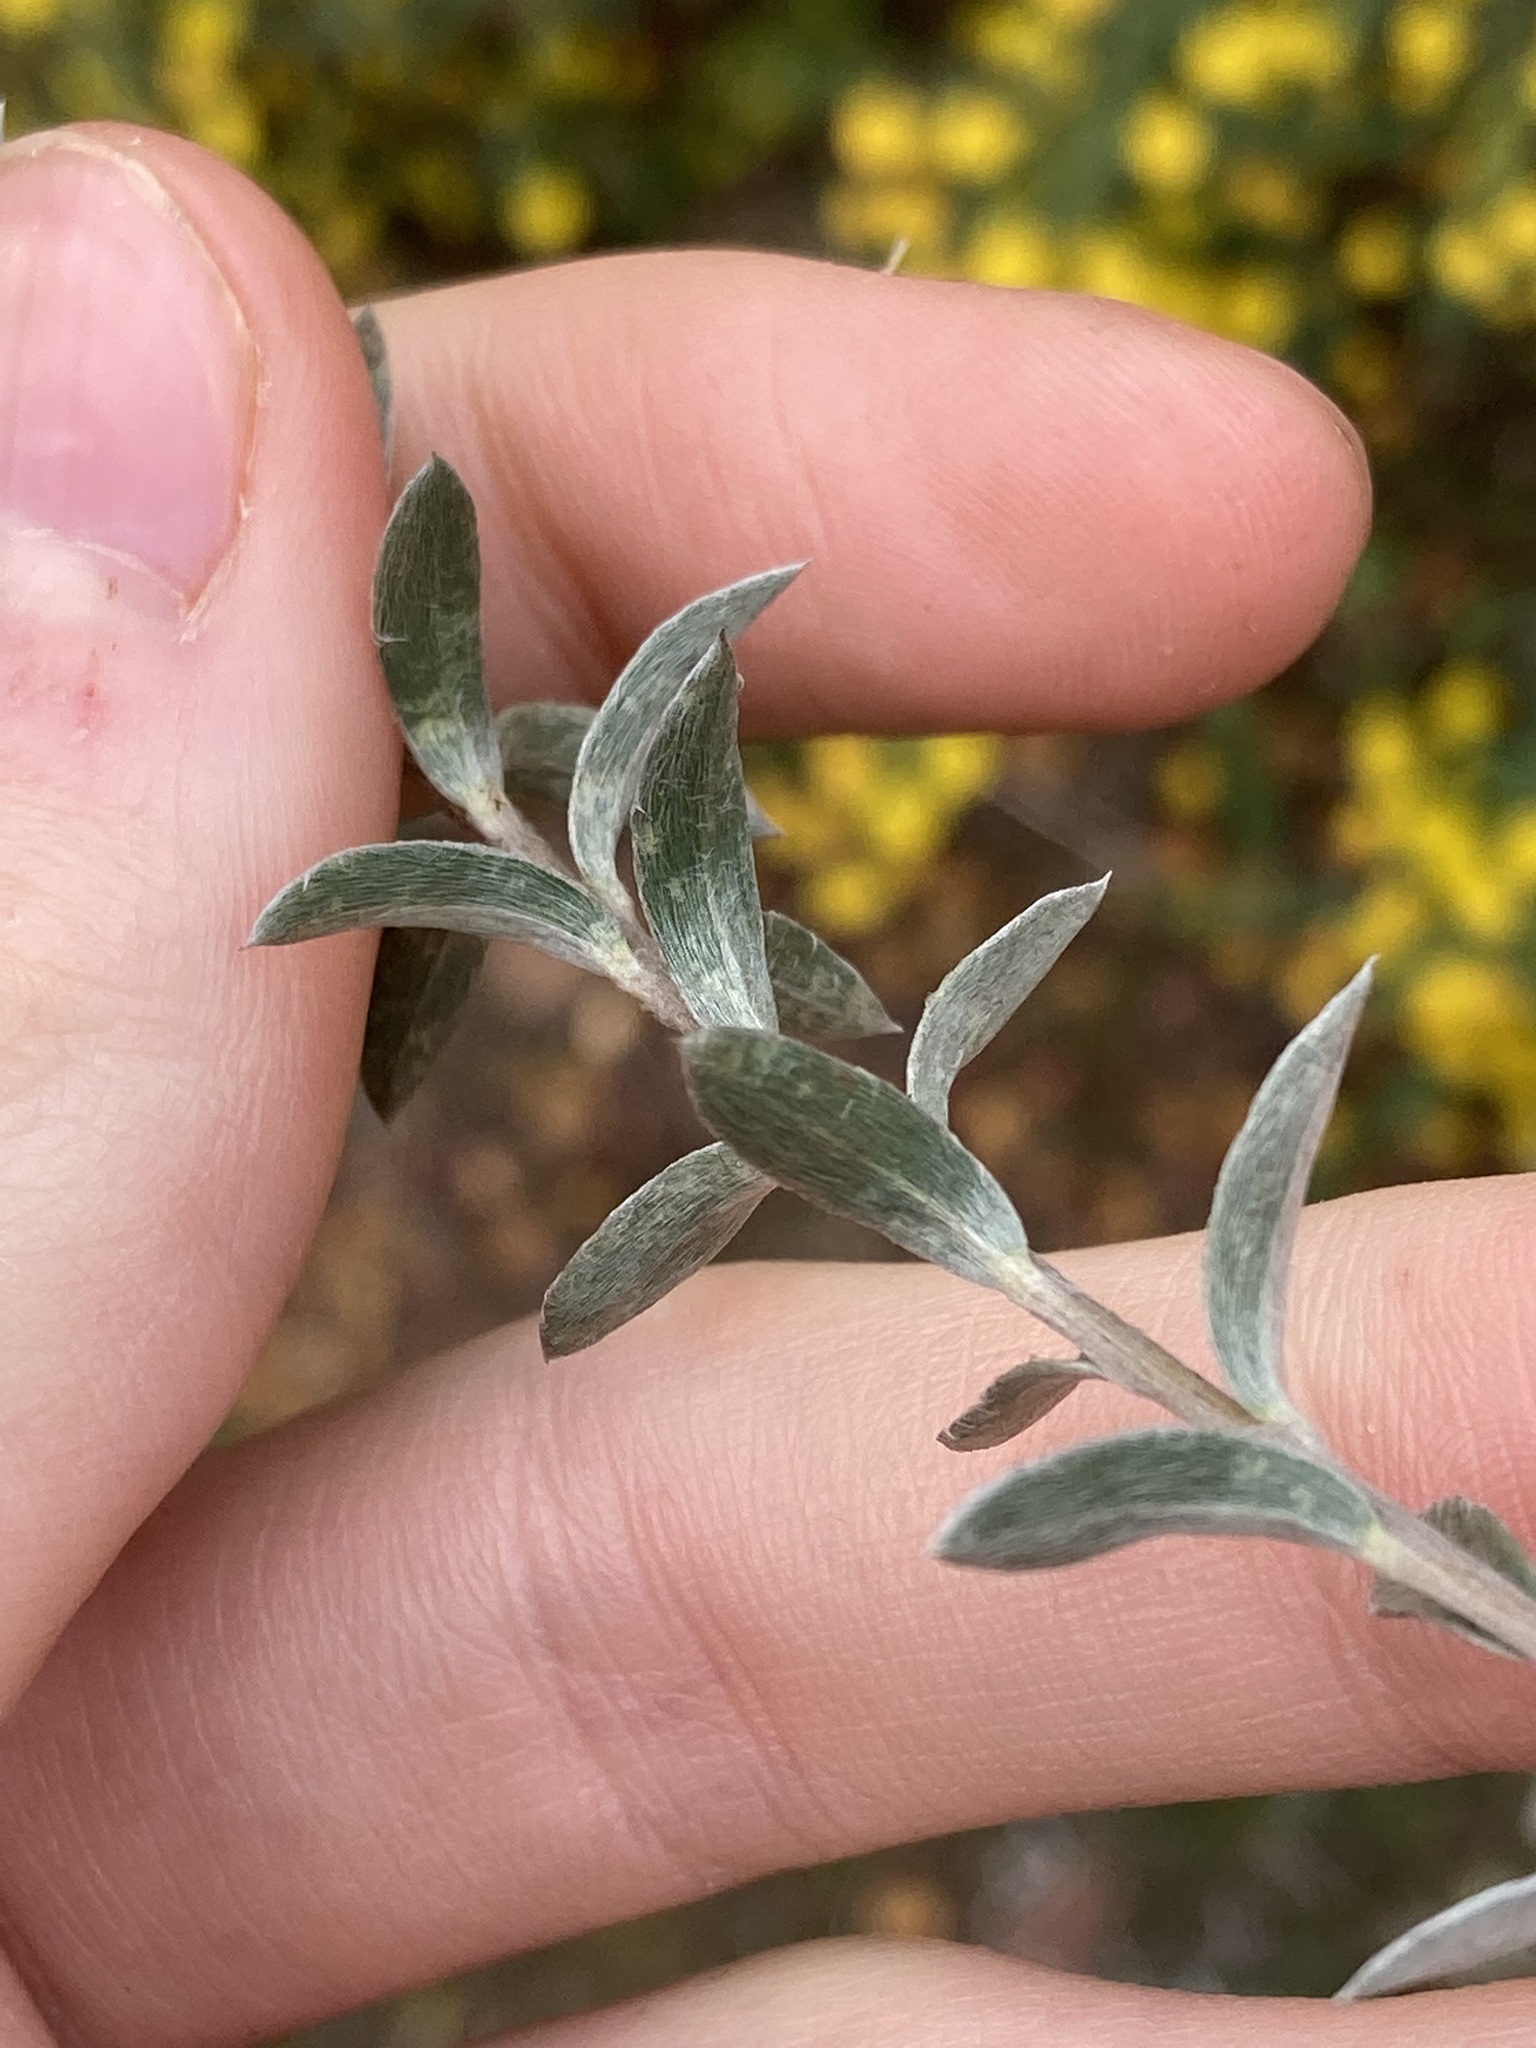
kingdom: Plantae
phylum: Tracheophyta
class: Magnoliopsida
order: Malvales
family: Thymelaeaceae
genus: Pimelea
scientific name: Pimelea argentea
